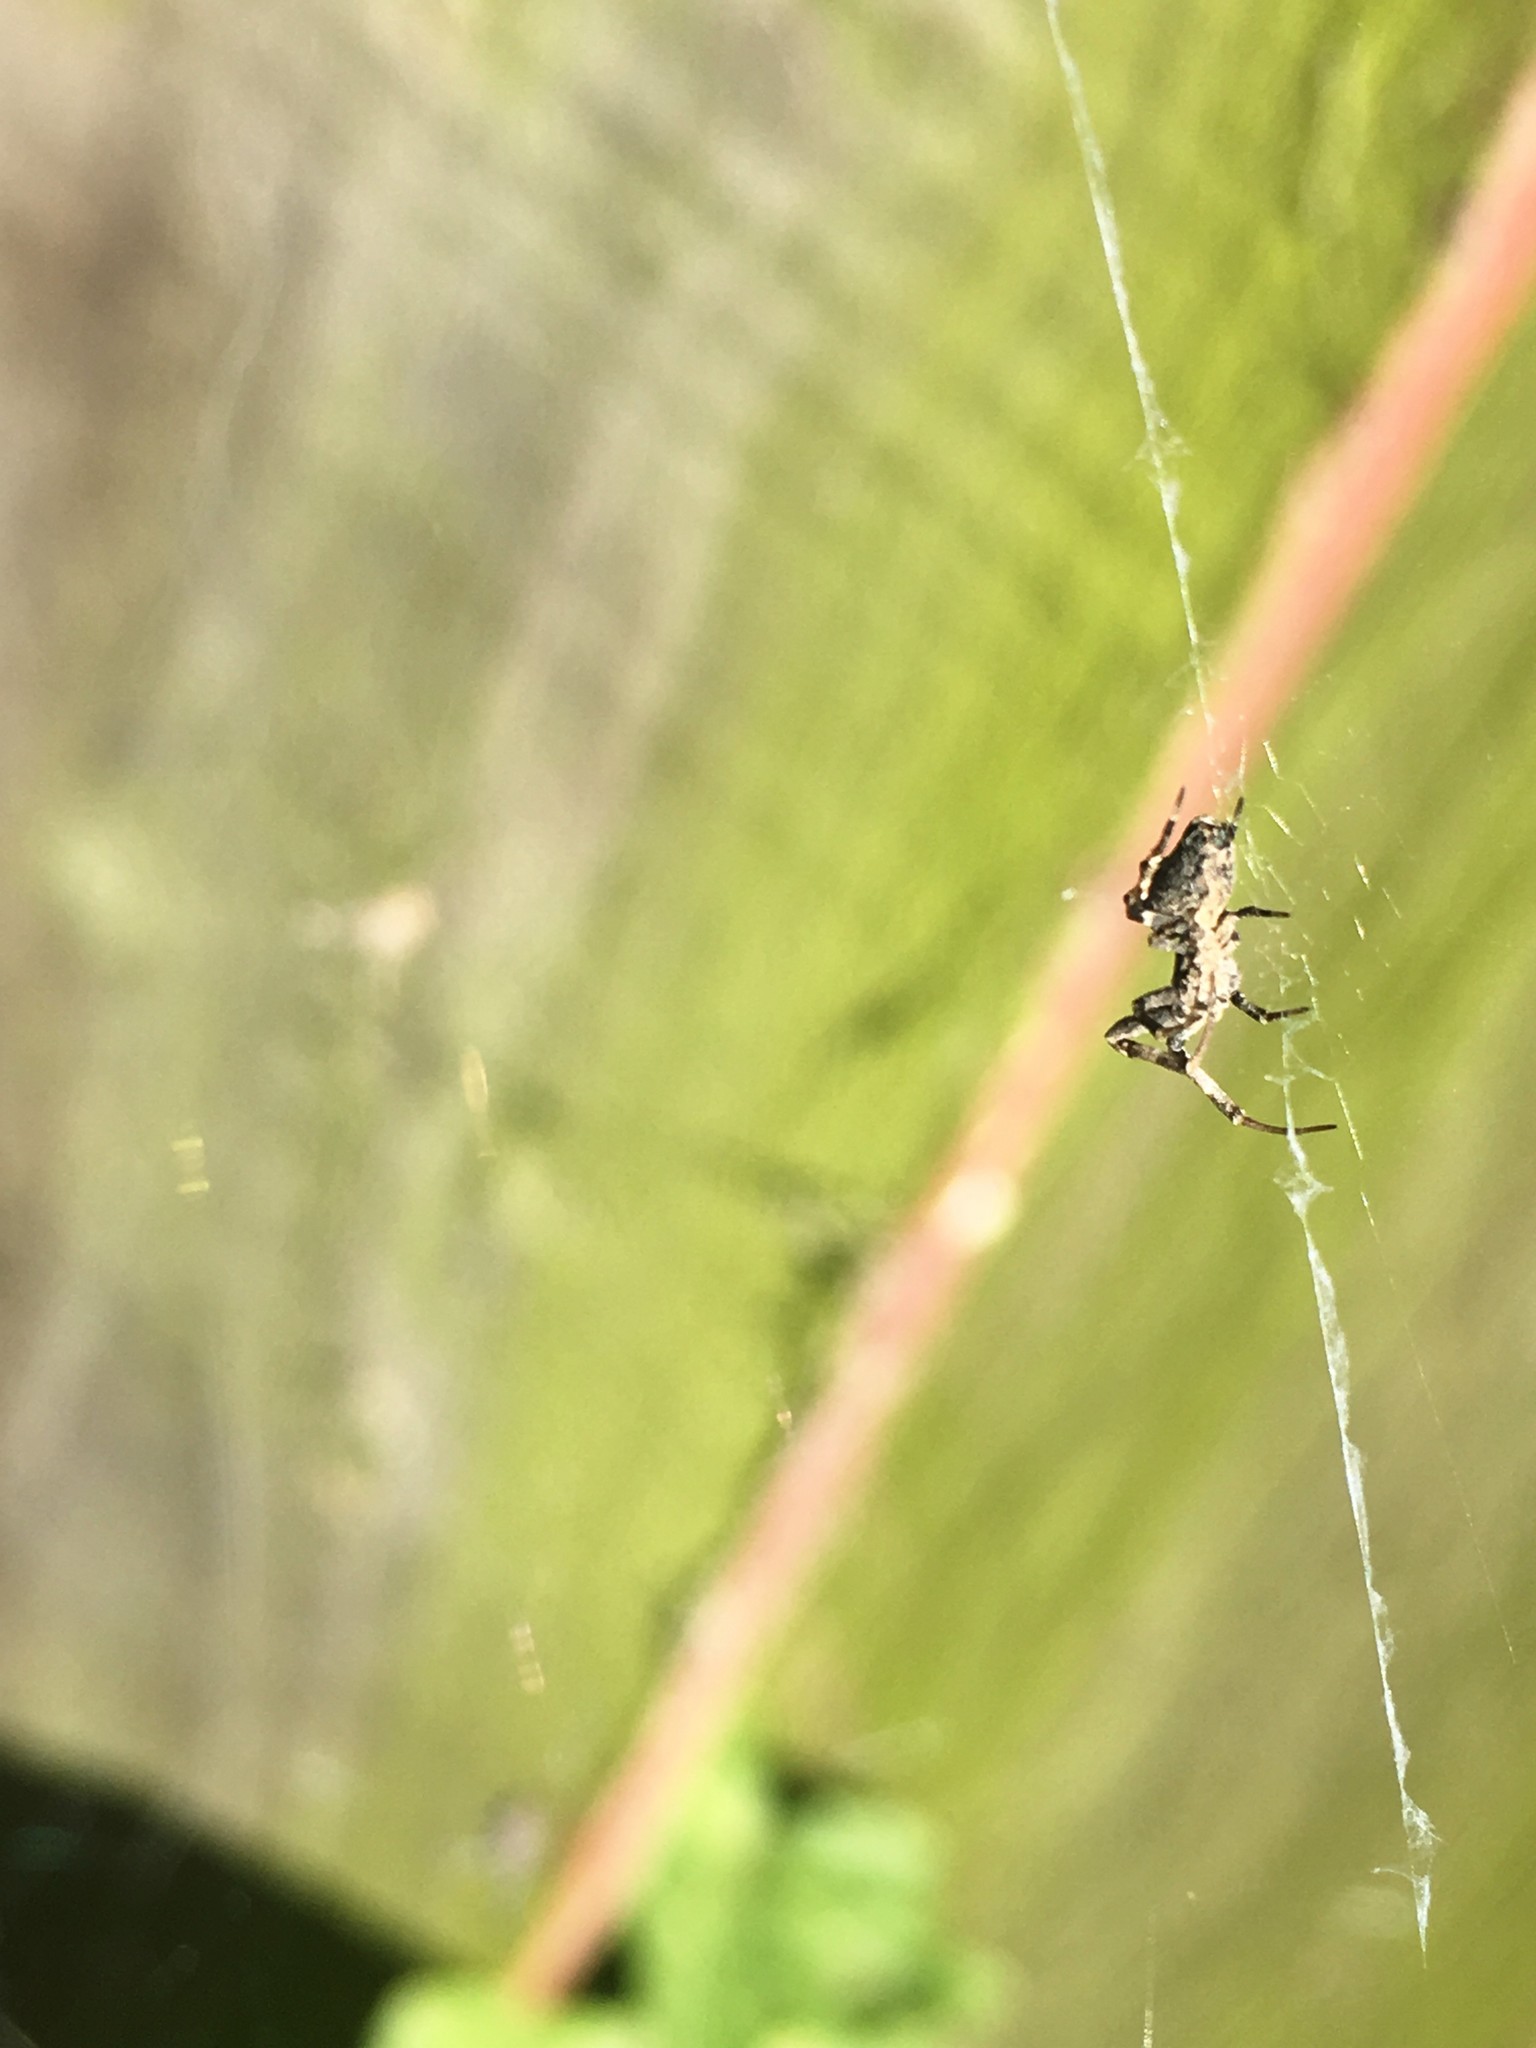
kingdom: Animalia
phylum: Arthropoda
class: Arachnida
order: Araneae
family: Uloboridae
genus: Philoponella
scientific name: Philoponella congregabilis
